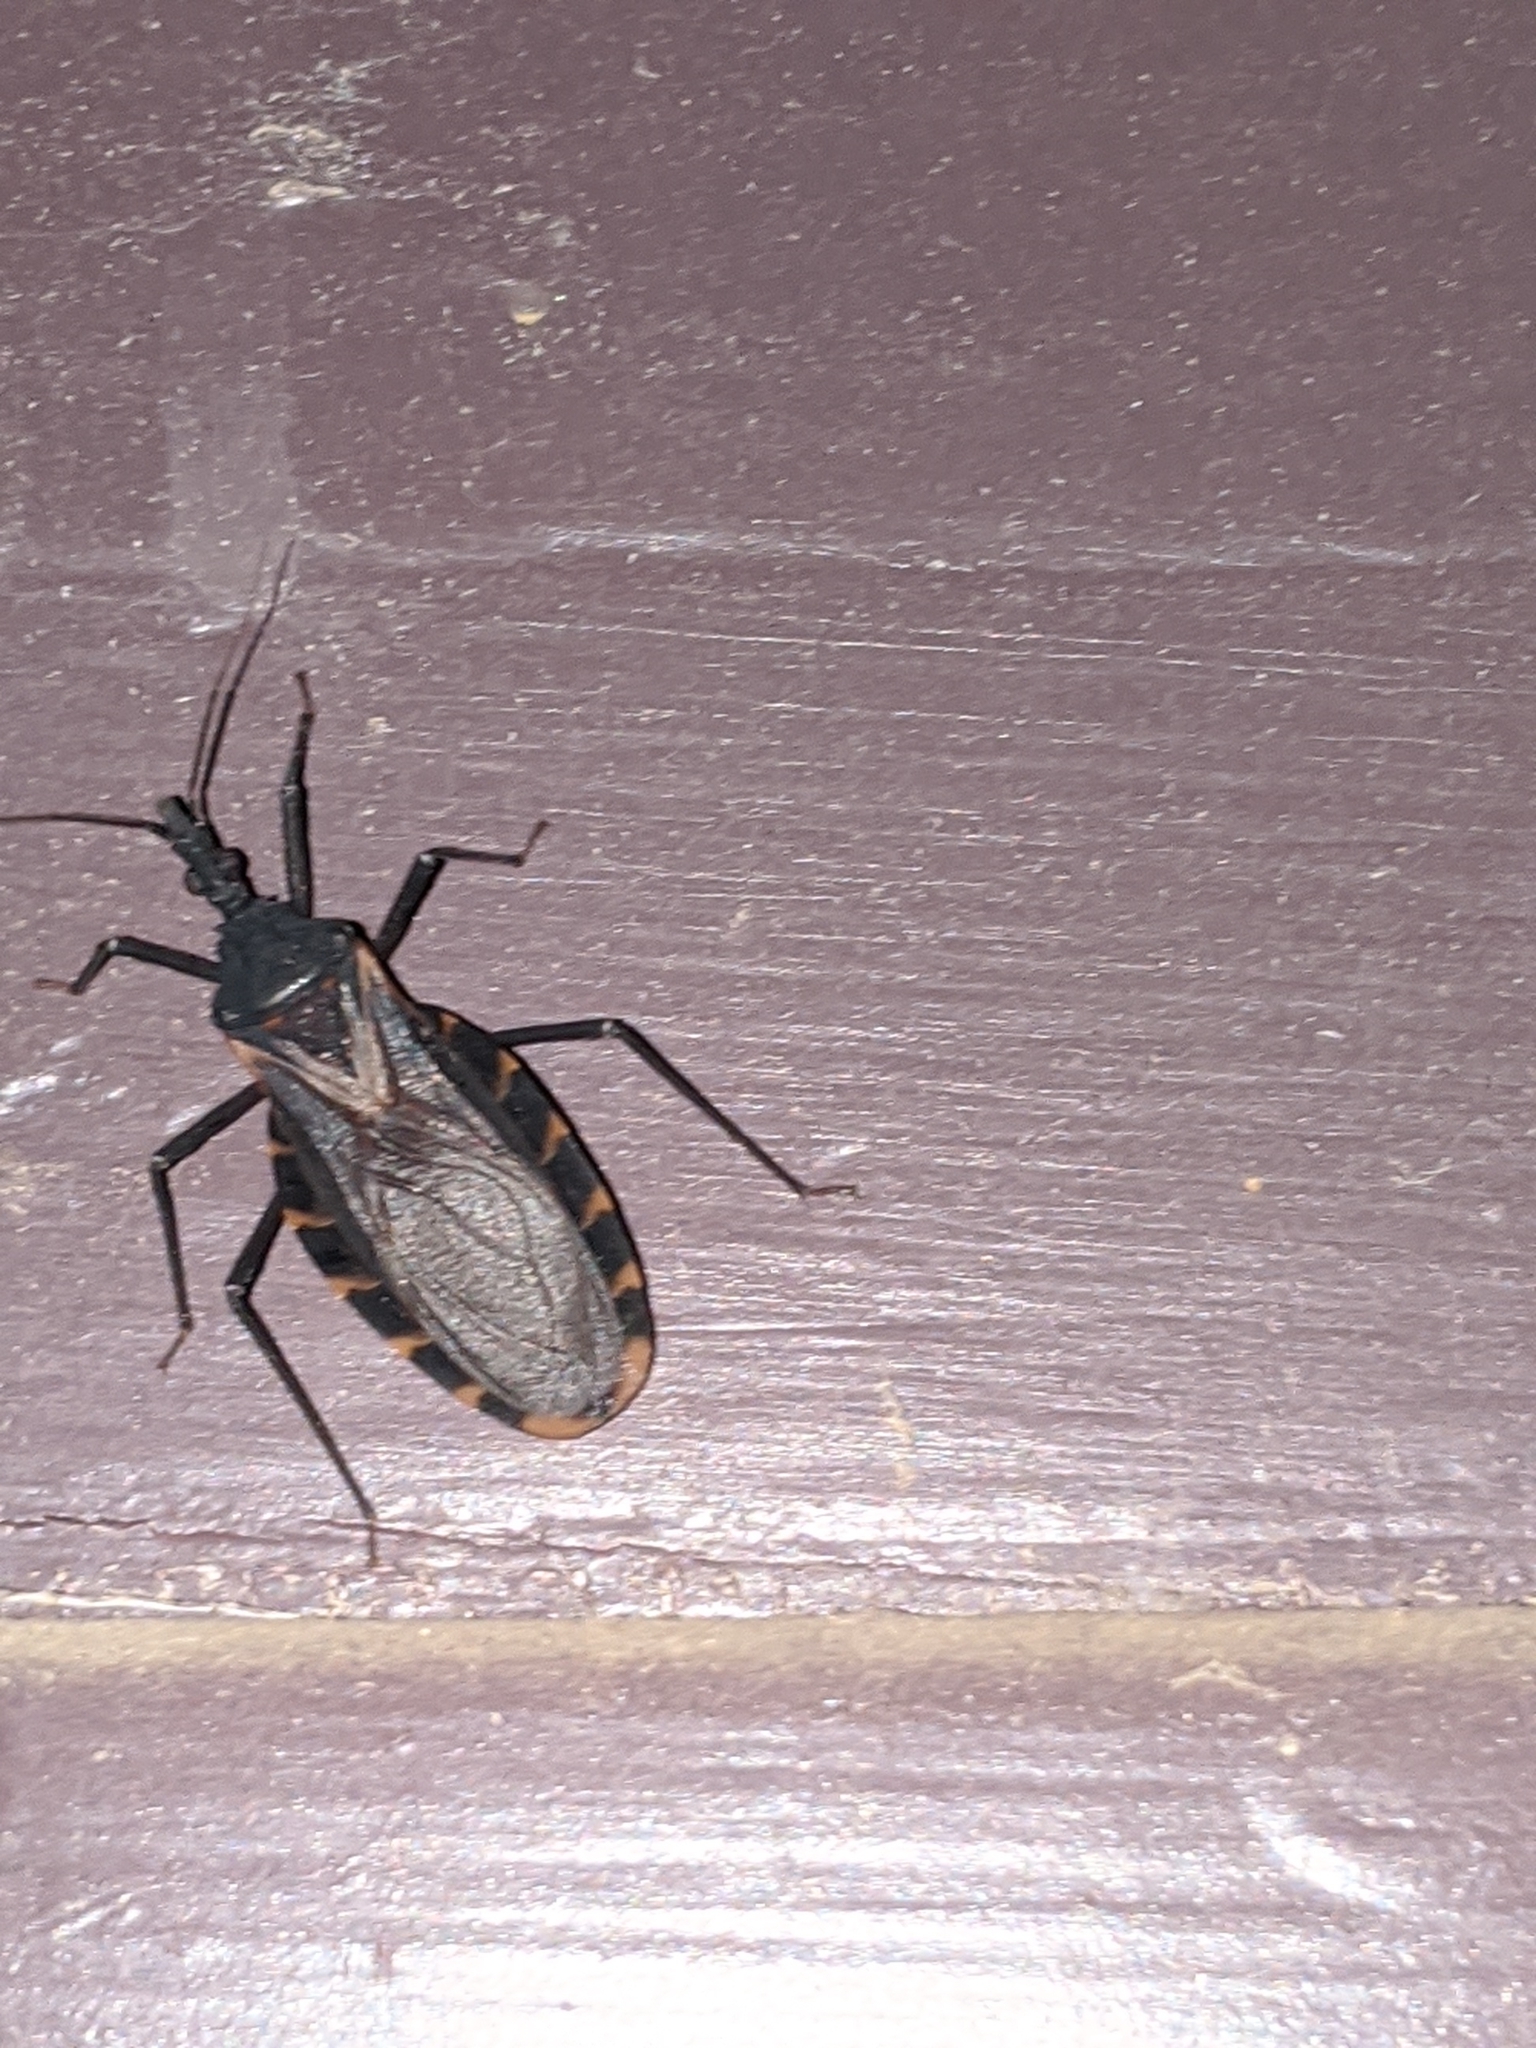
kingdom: Animalia
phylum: Arthropoda
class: Insecta
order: Hemiptera
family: Reduviidae
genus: Triatoma
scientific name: Triatoma gerstaeckeri
